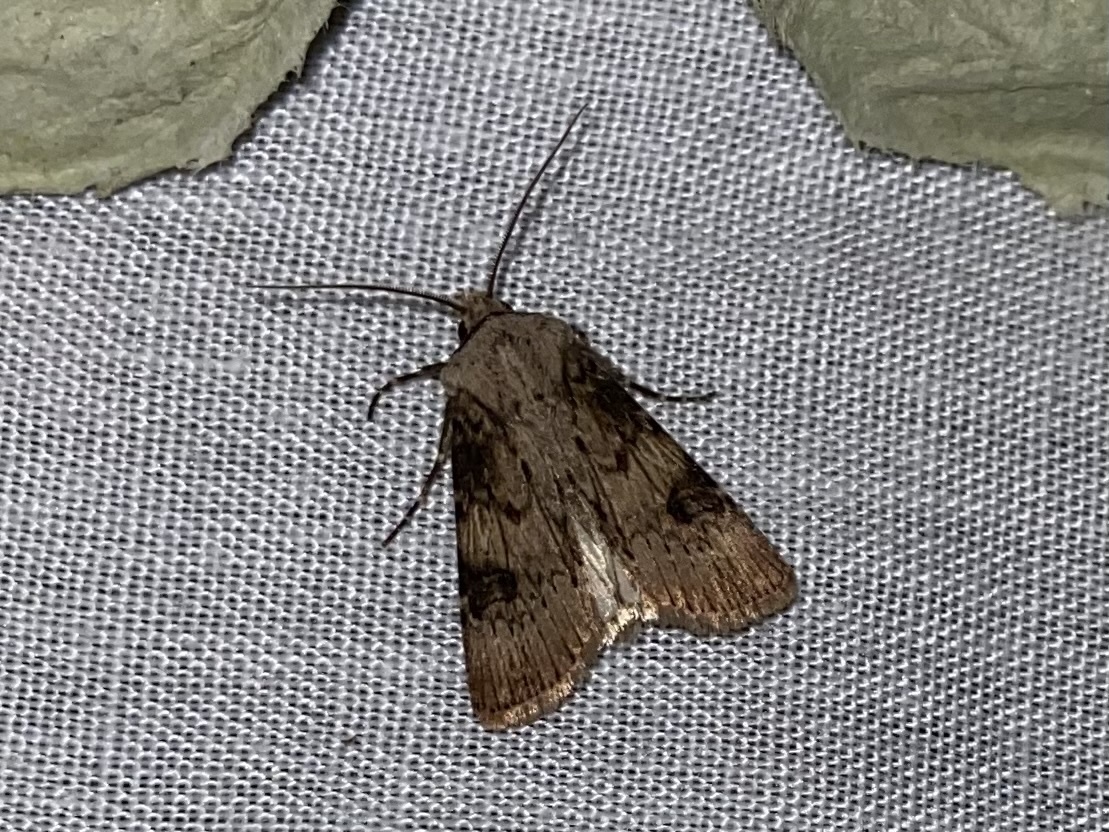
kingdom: Animalia
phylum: Arthropoda
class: Insecta
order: Lepidoptera
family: Noctuidae
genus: Agrotis
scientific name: Agrotis puta
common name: Shuttle-shaped dart
